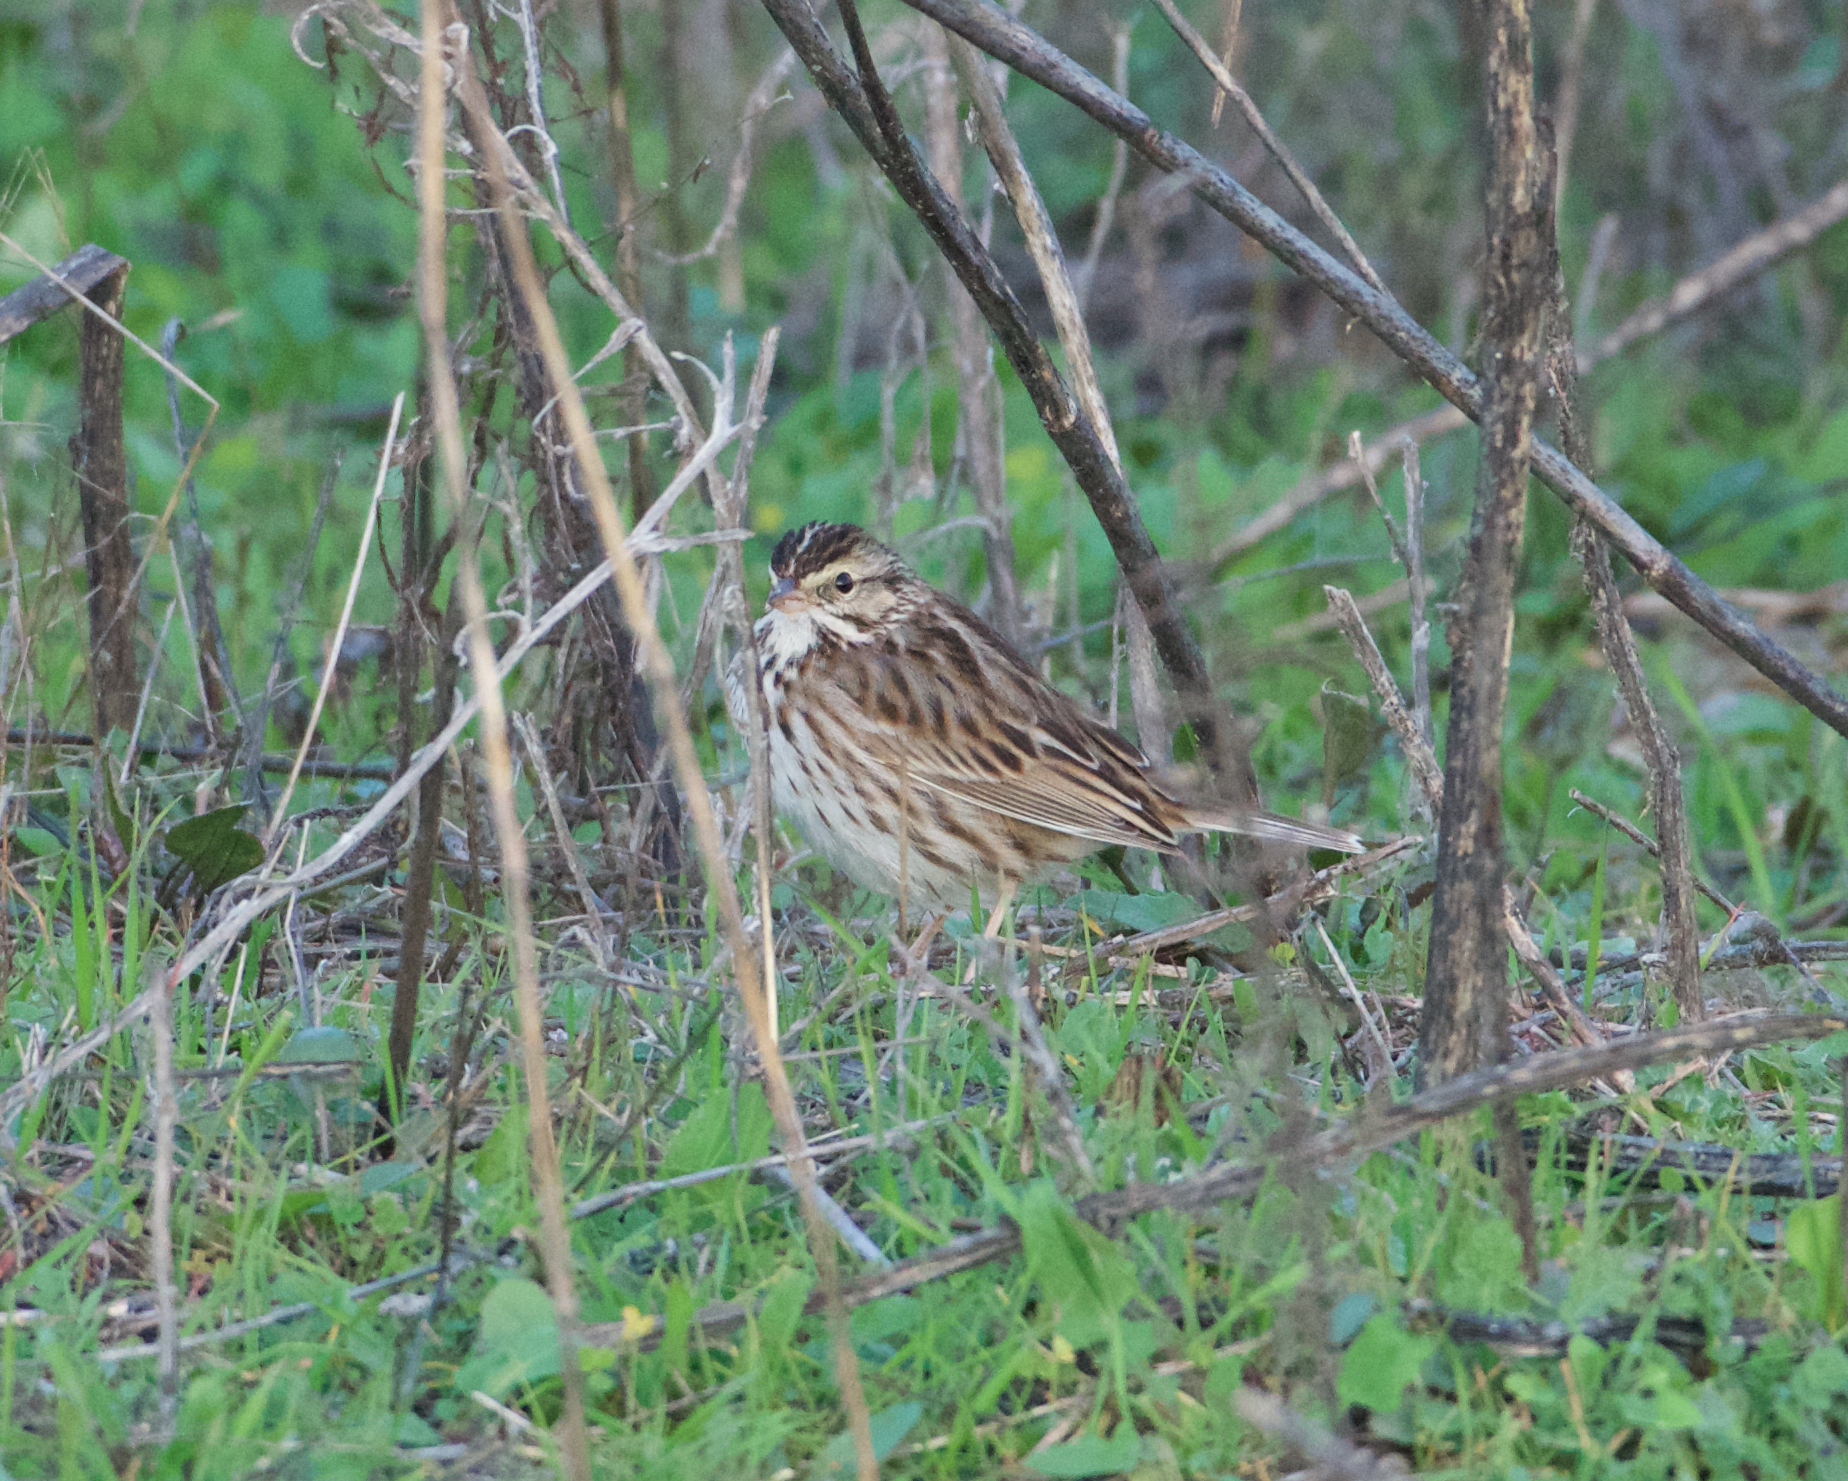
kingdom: Animalia
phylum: Chordata
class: Aves
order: Passeriformes
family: Passerellidae
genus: Passerculus
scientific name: Passerculus sandwichensis
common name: Savannah sparrow
